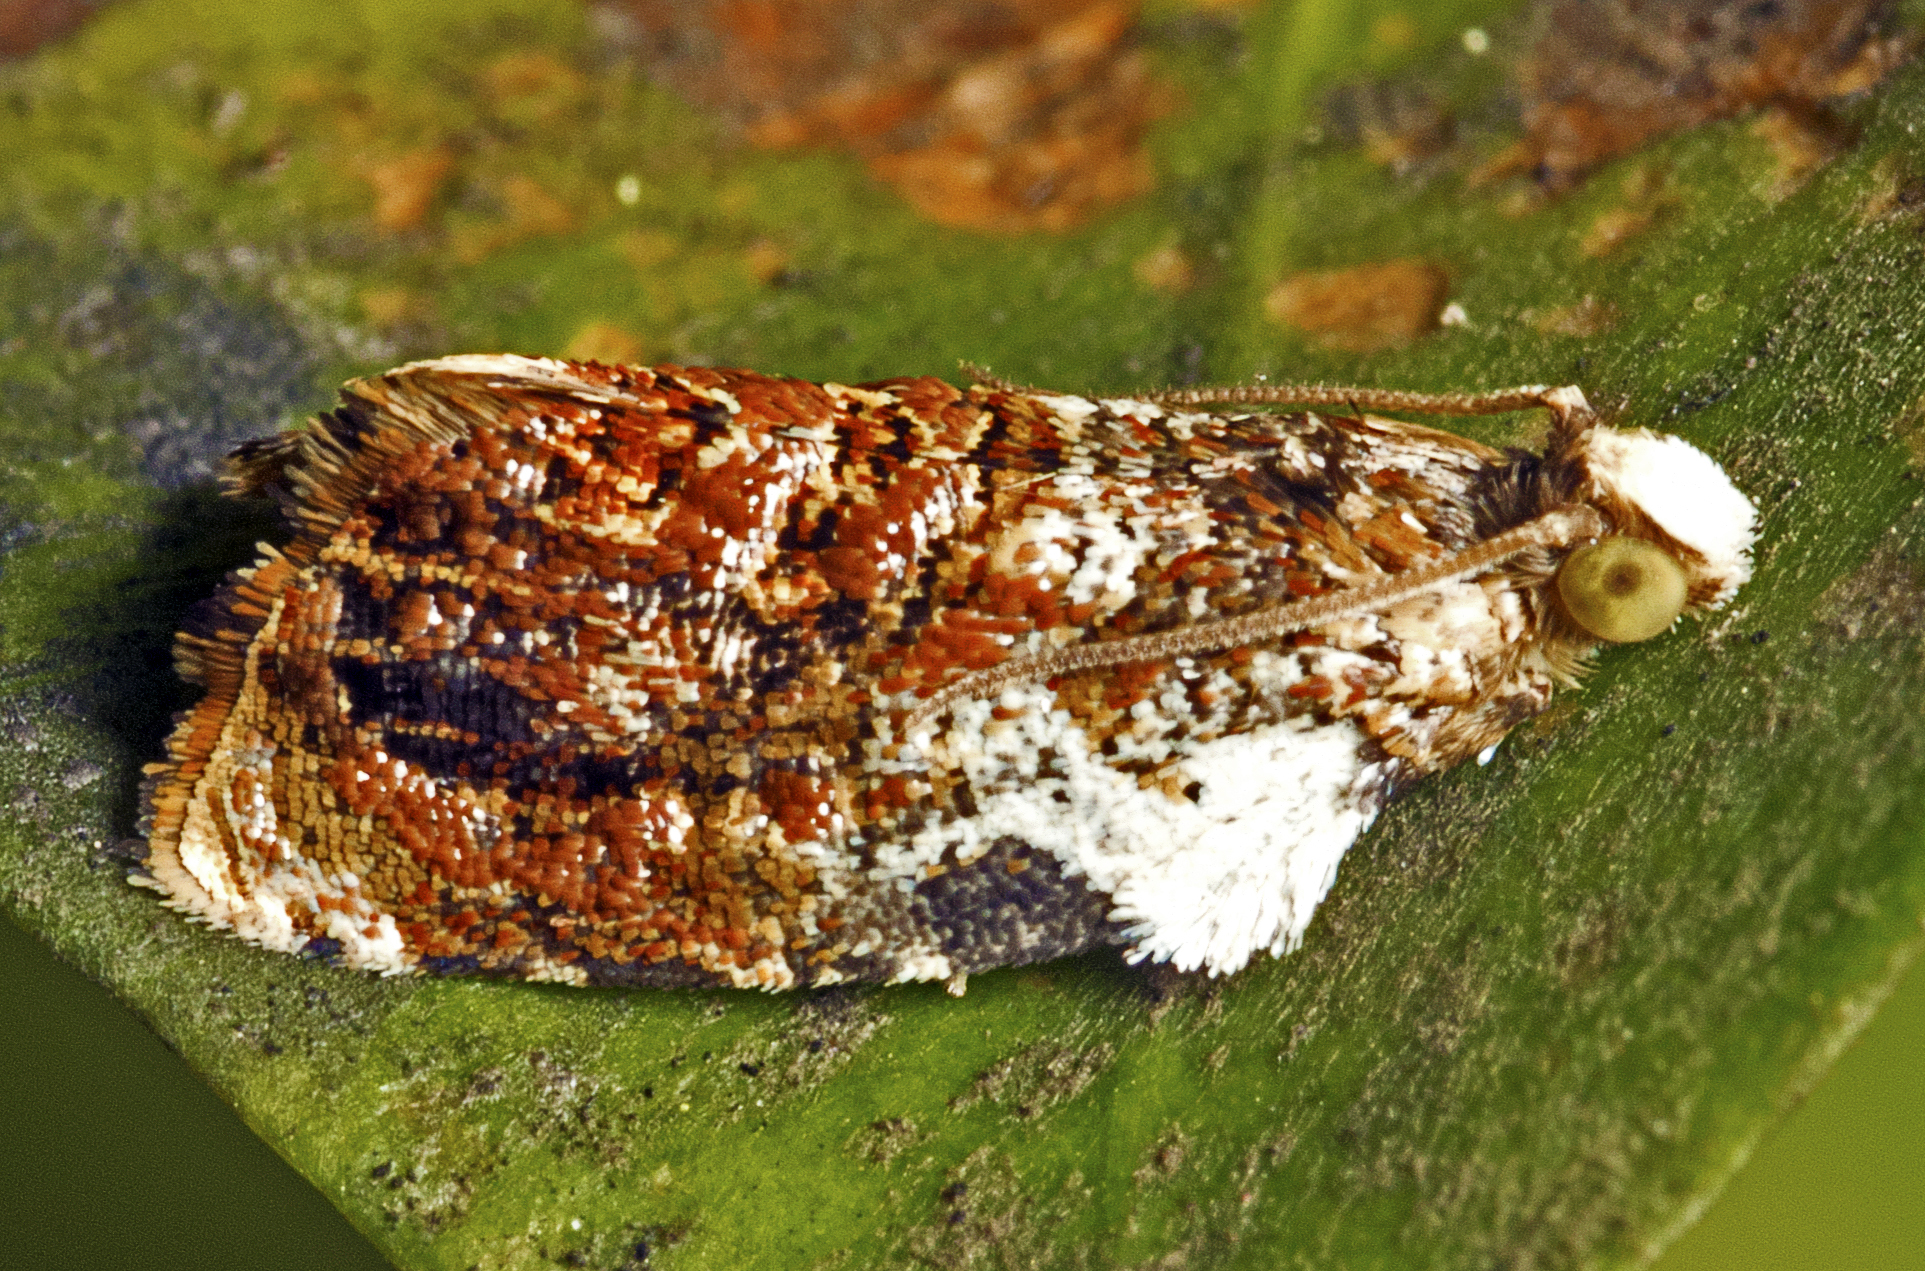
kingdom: Animalia
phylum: Arthropoda
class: Insecta
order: Lepidoptera
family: Tortricidae
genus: Acroceuthes
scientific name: Acroceuthes metaxanthana
